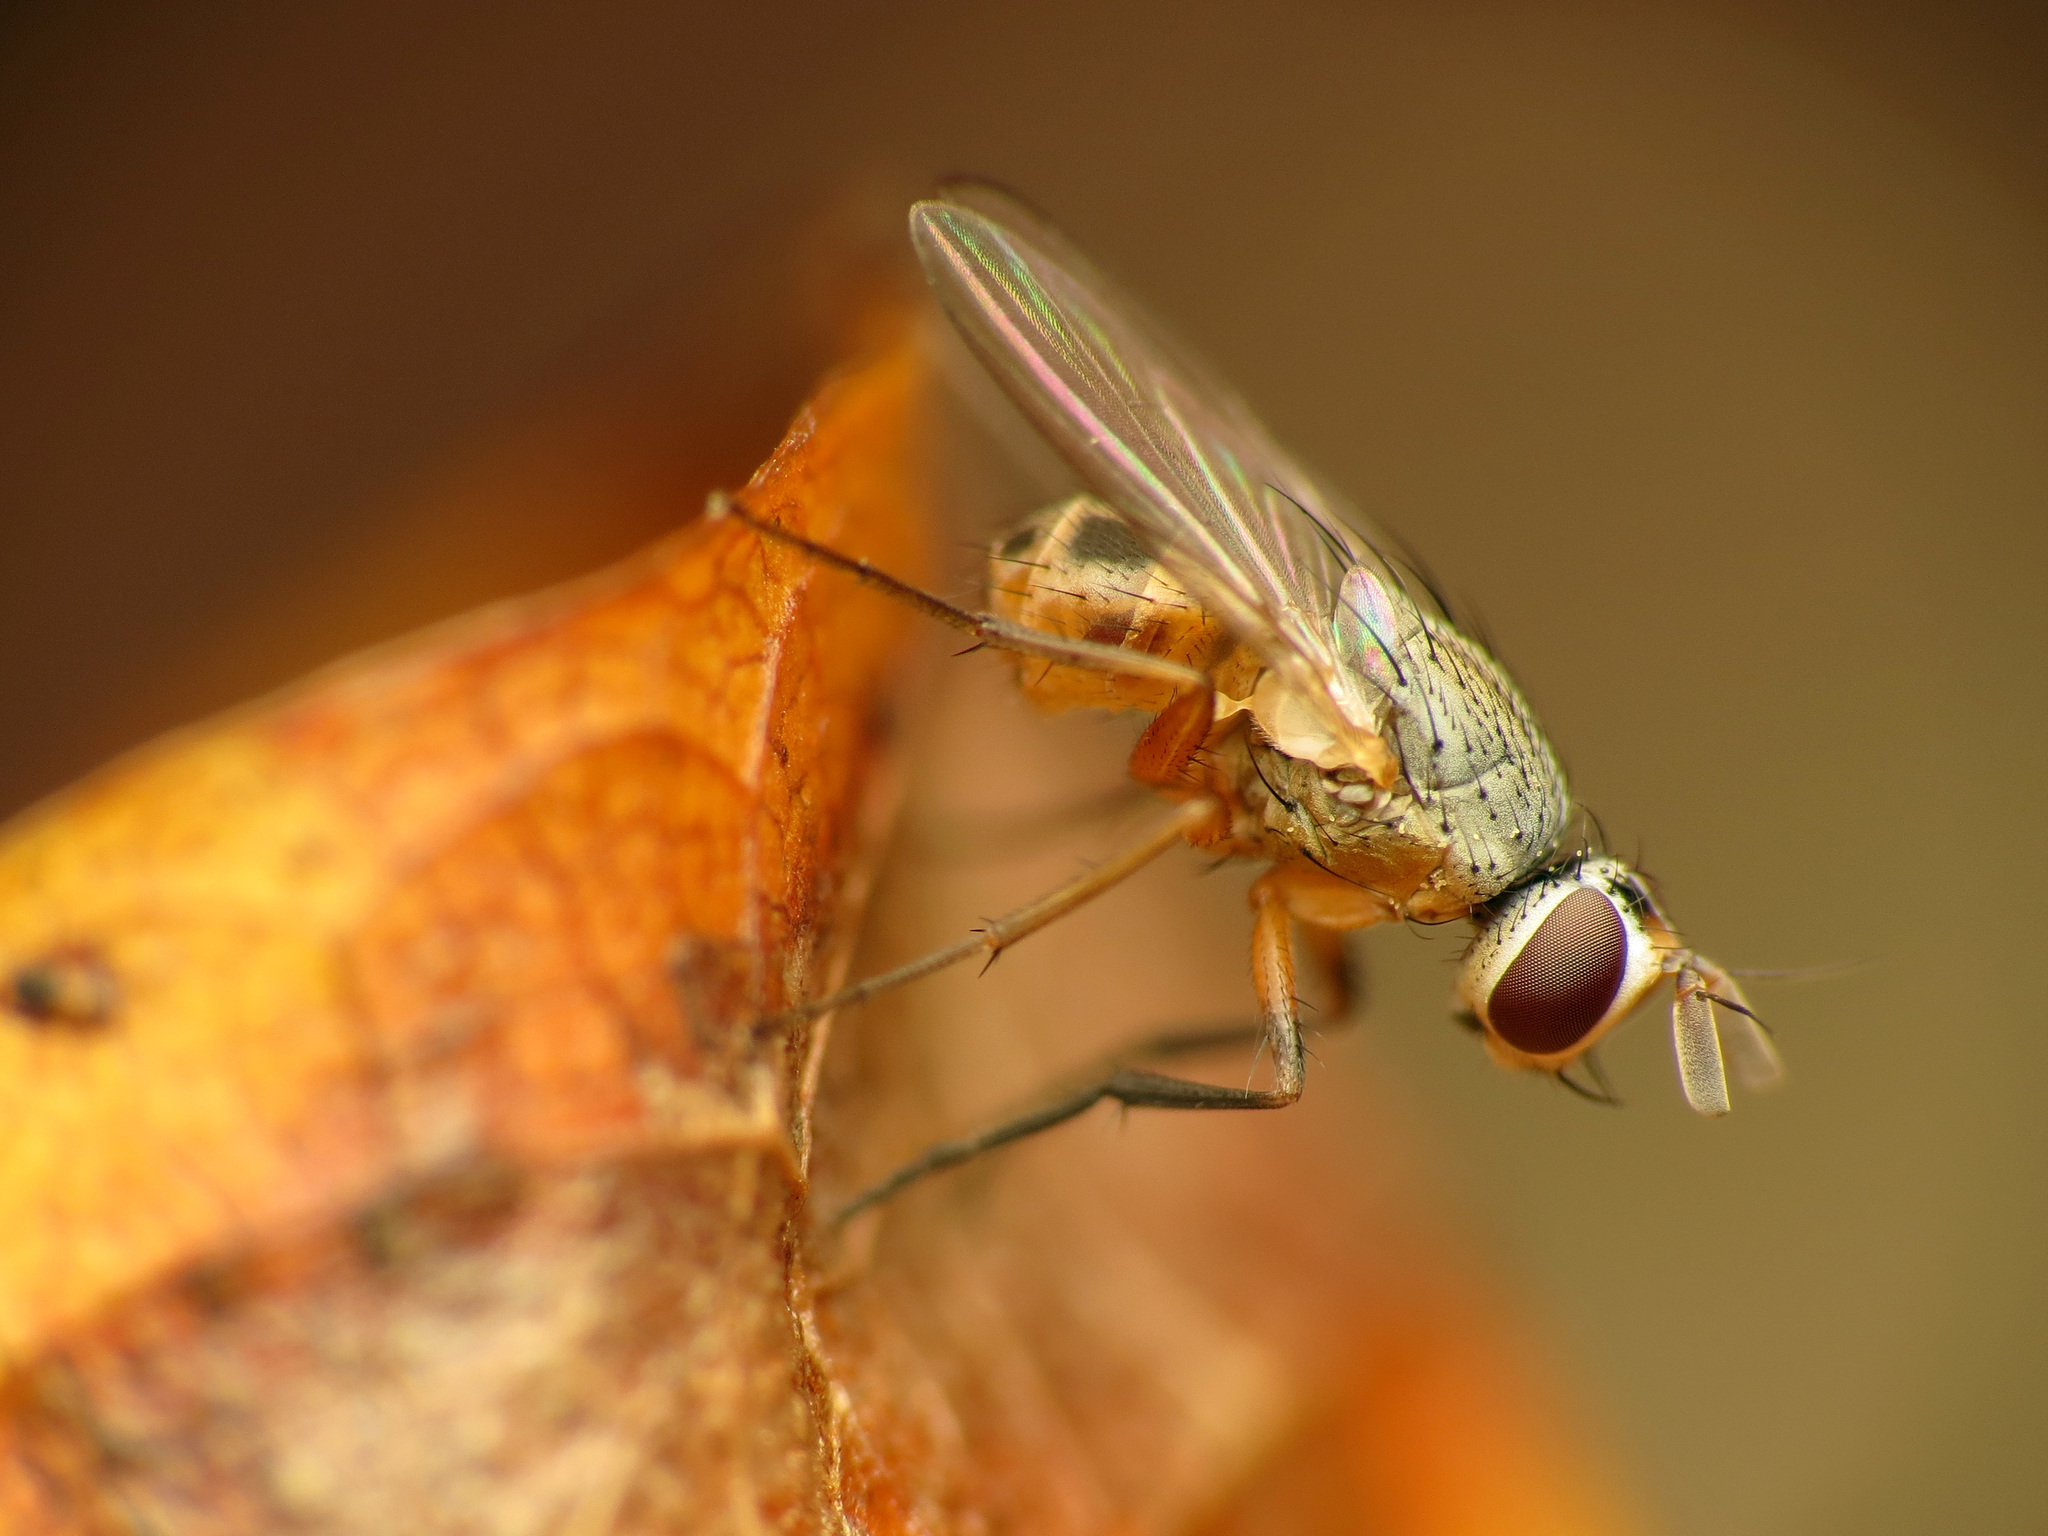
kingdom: Animalia
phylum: Arthropoda
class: Insecta
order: Diptera
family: Muscidae
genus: Atherigona
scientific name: Atherigona reversura
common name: Bermudagrass stem maggot
